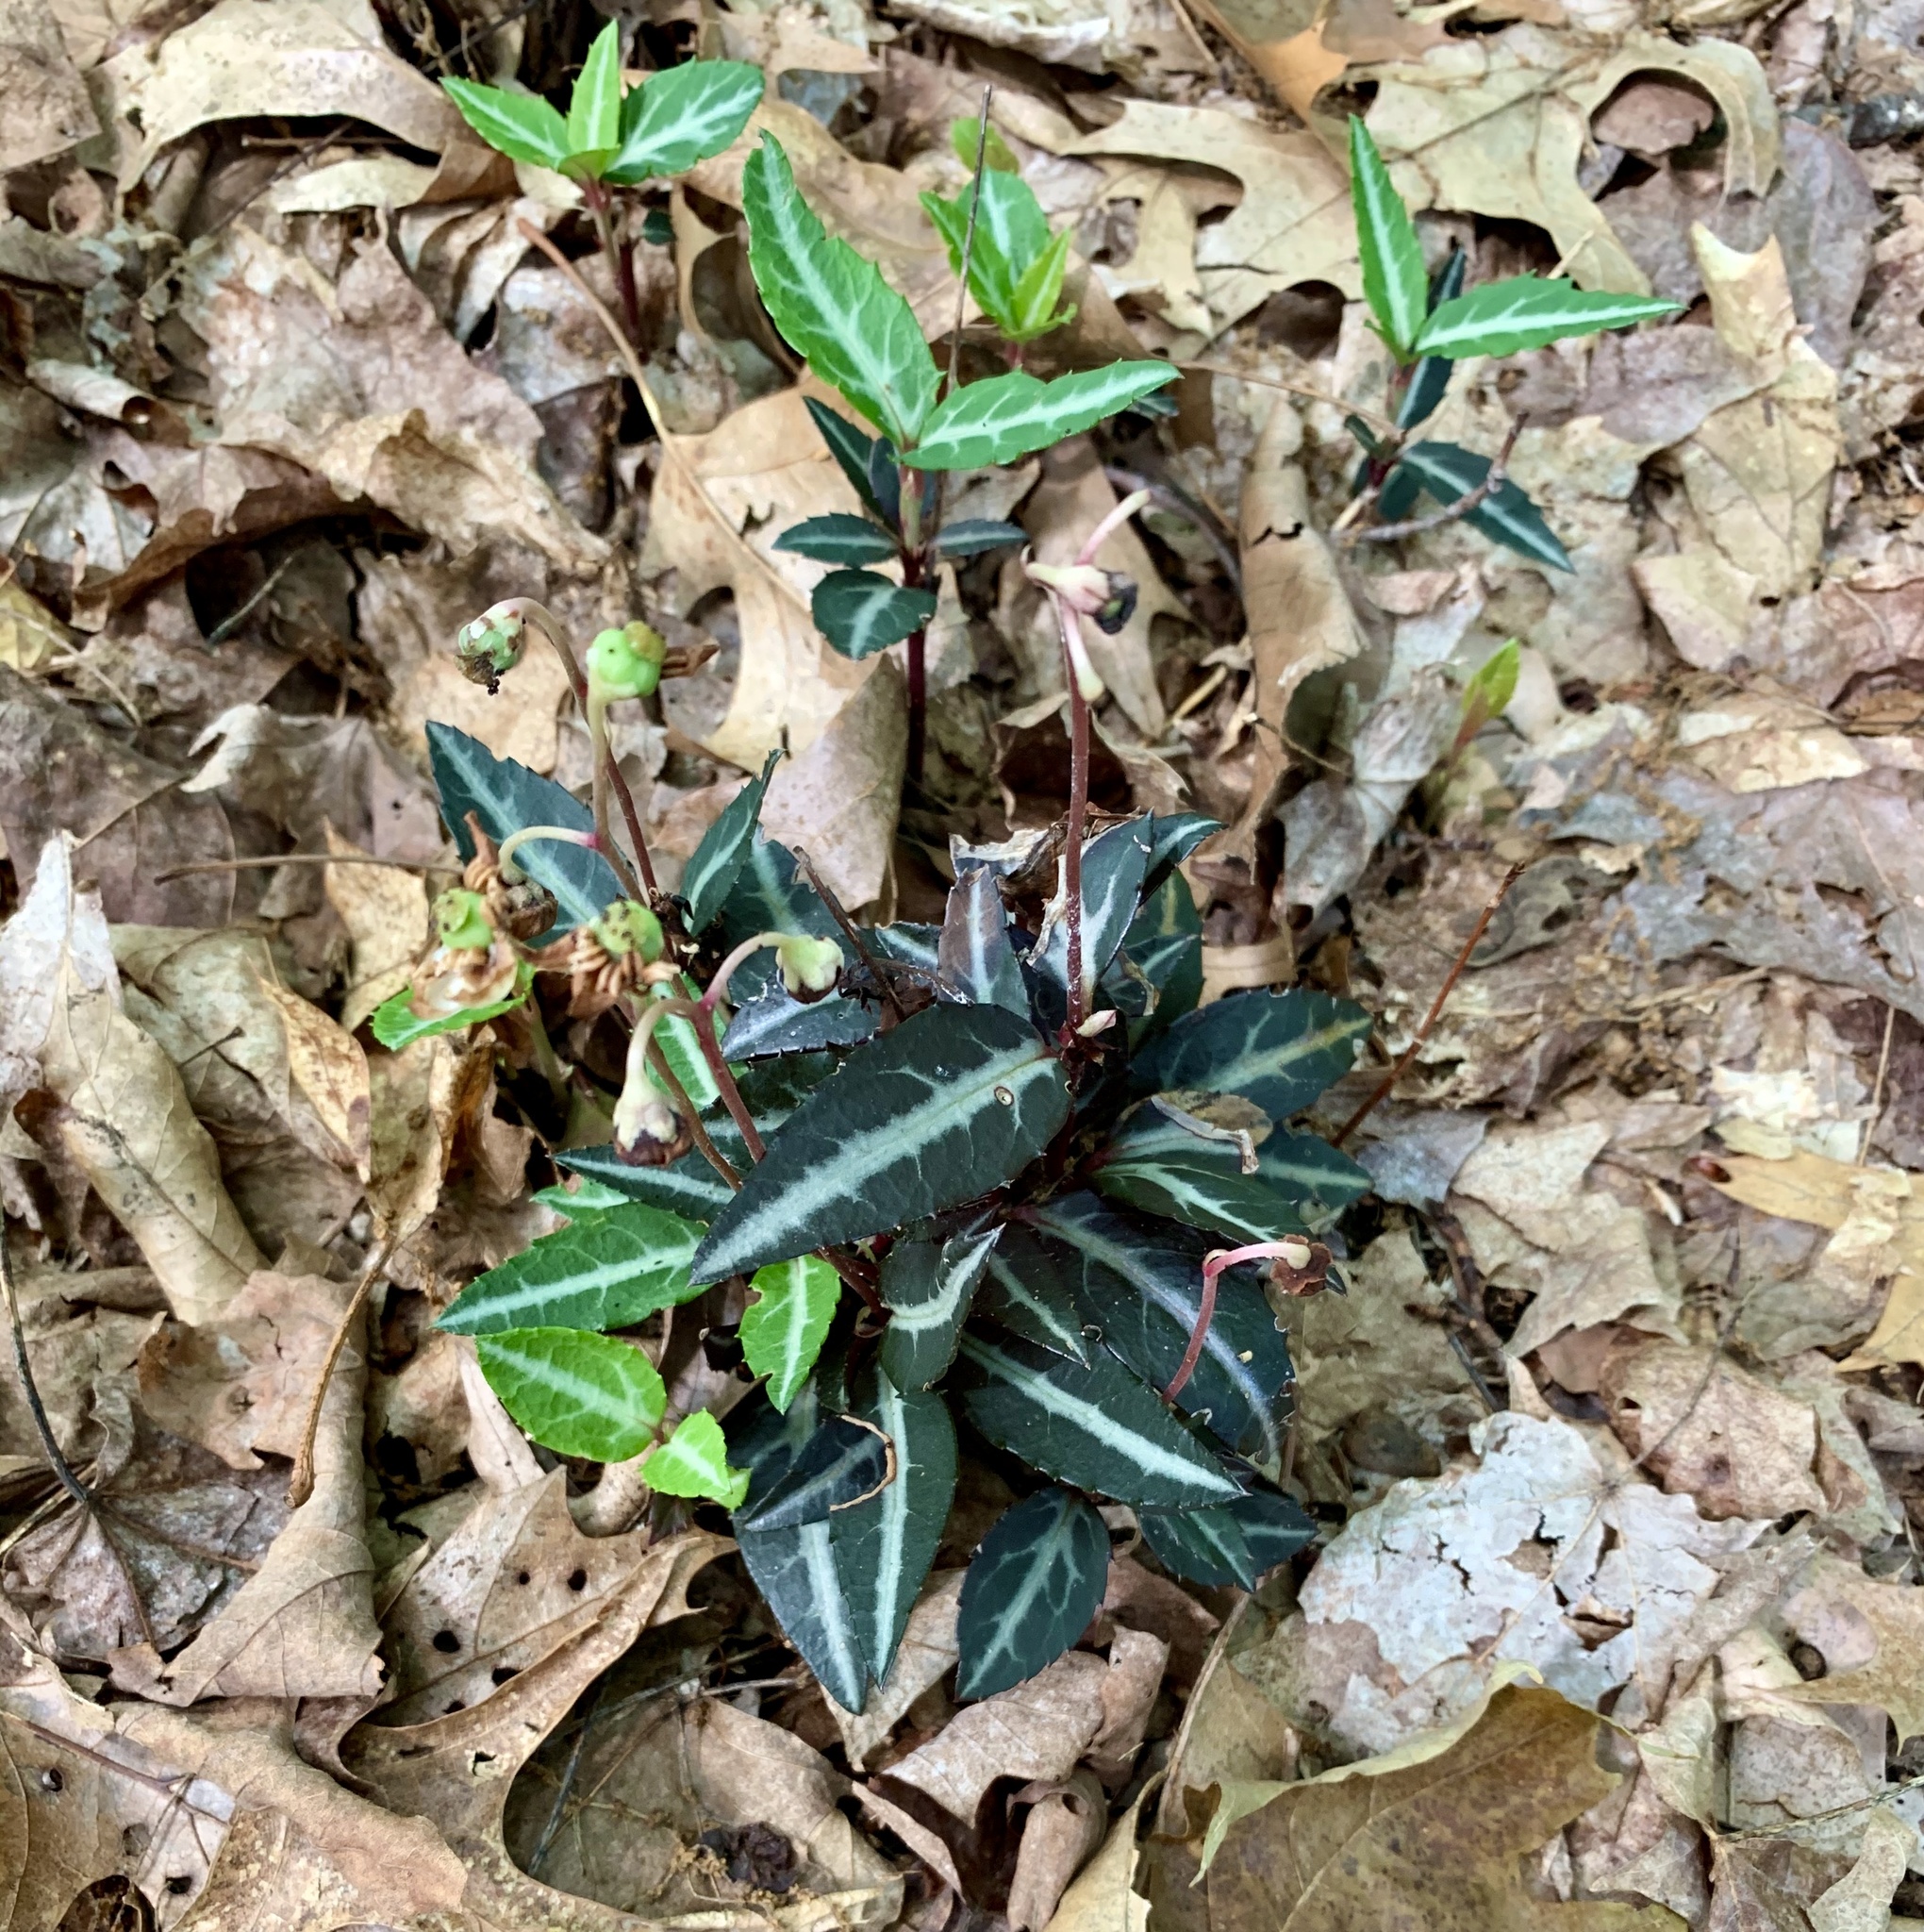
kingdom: Plantae
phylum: Tracheophyta
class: Magnoliopsida
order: Ericales
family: Ericaceae
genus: Chimaphila
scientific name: Chimaphila maculata
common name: Spotted pipsissewa
